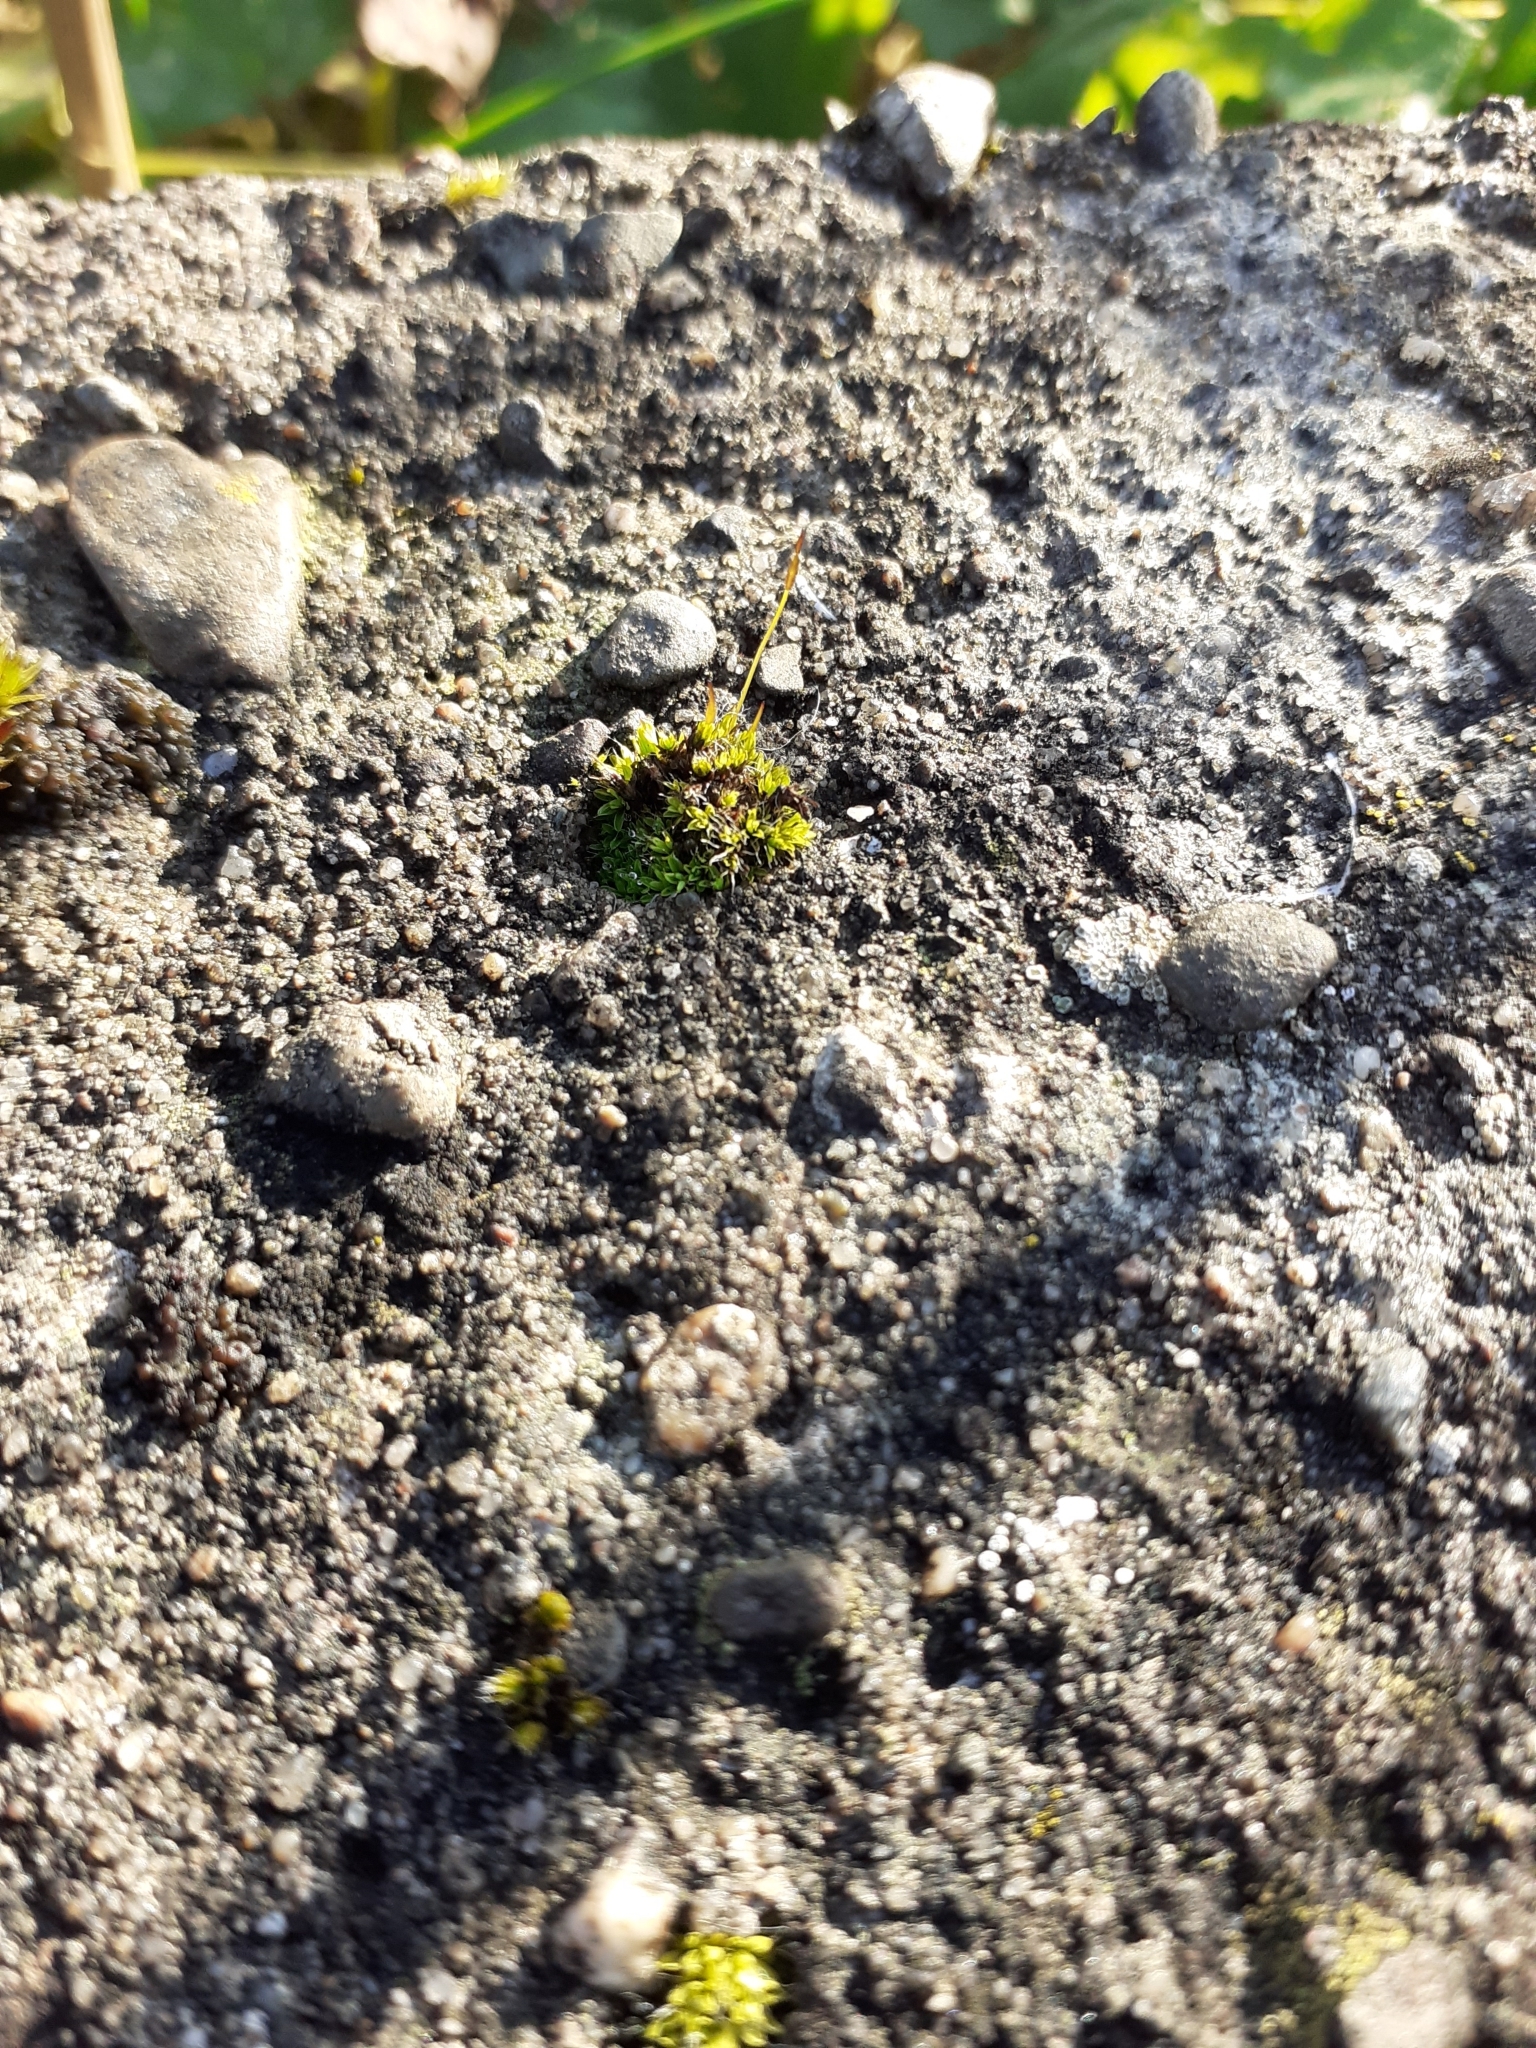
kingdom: Plantae
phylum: Bryophyta
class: Bryopsida
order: Pottiales
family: Pottiaceae
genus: Tortula
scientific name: Tortula muralis
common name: Wall screw-moss
